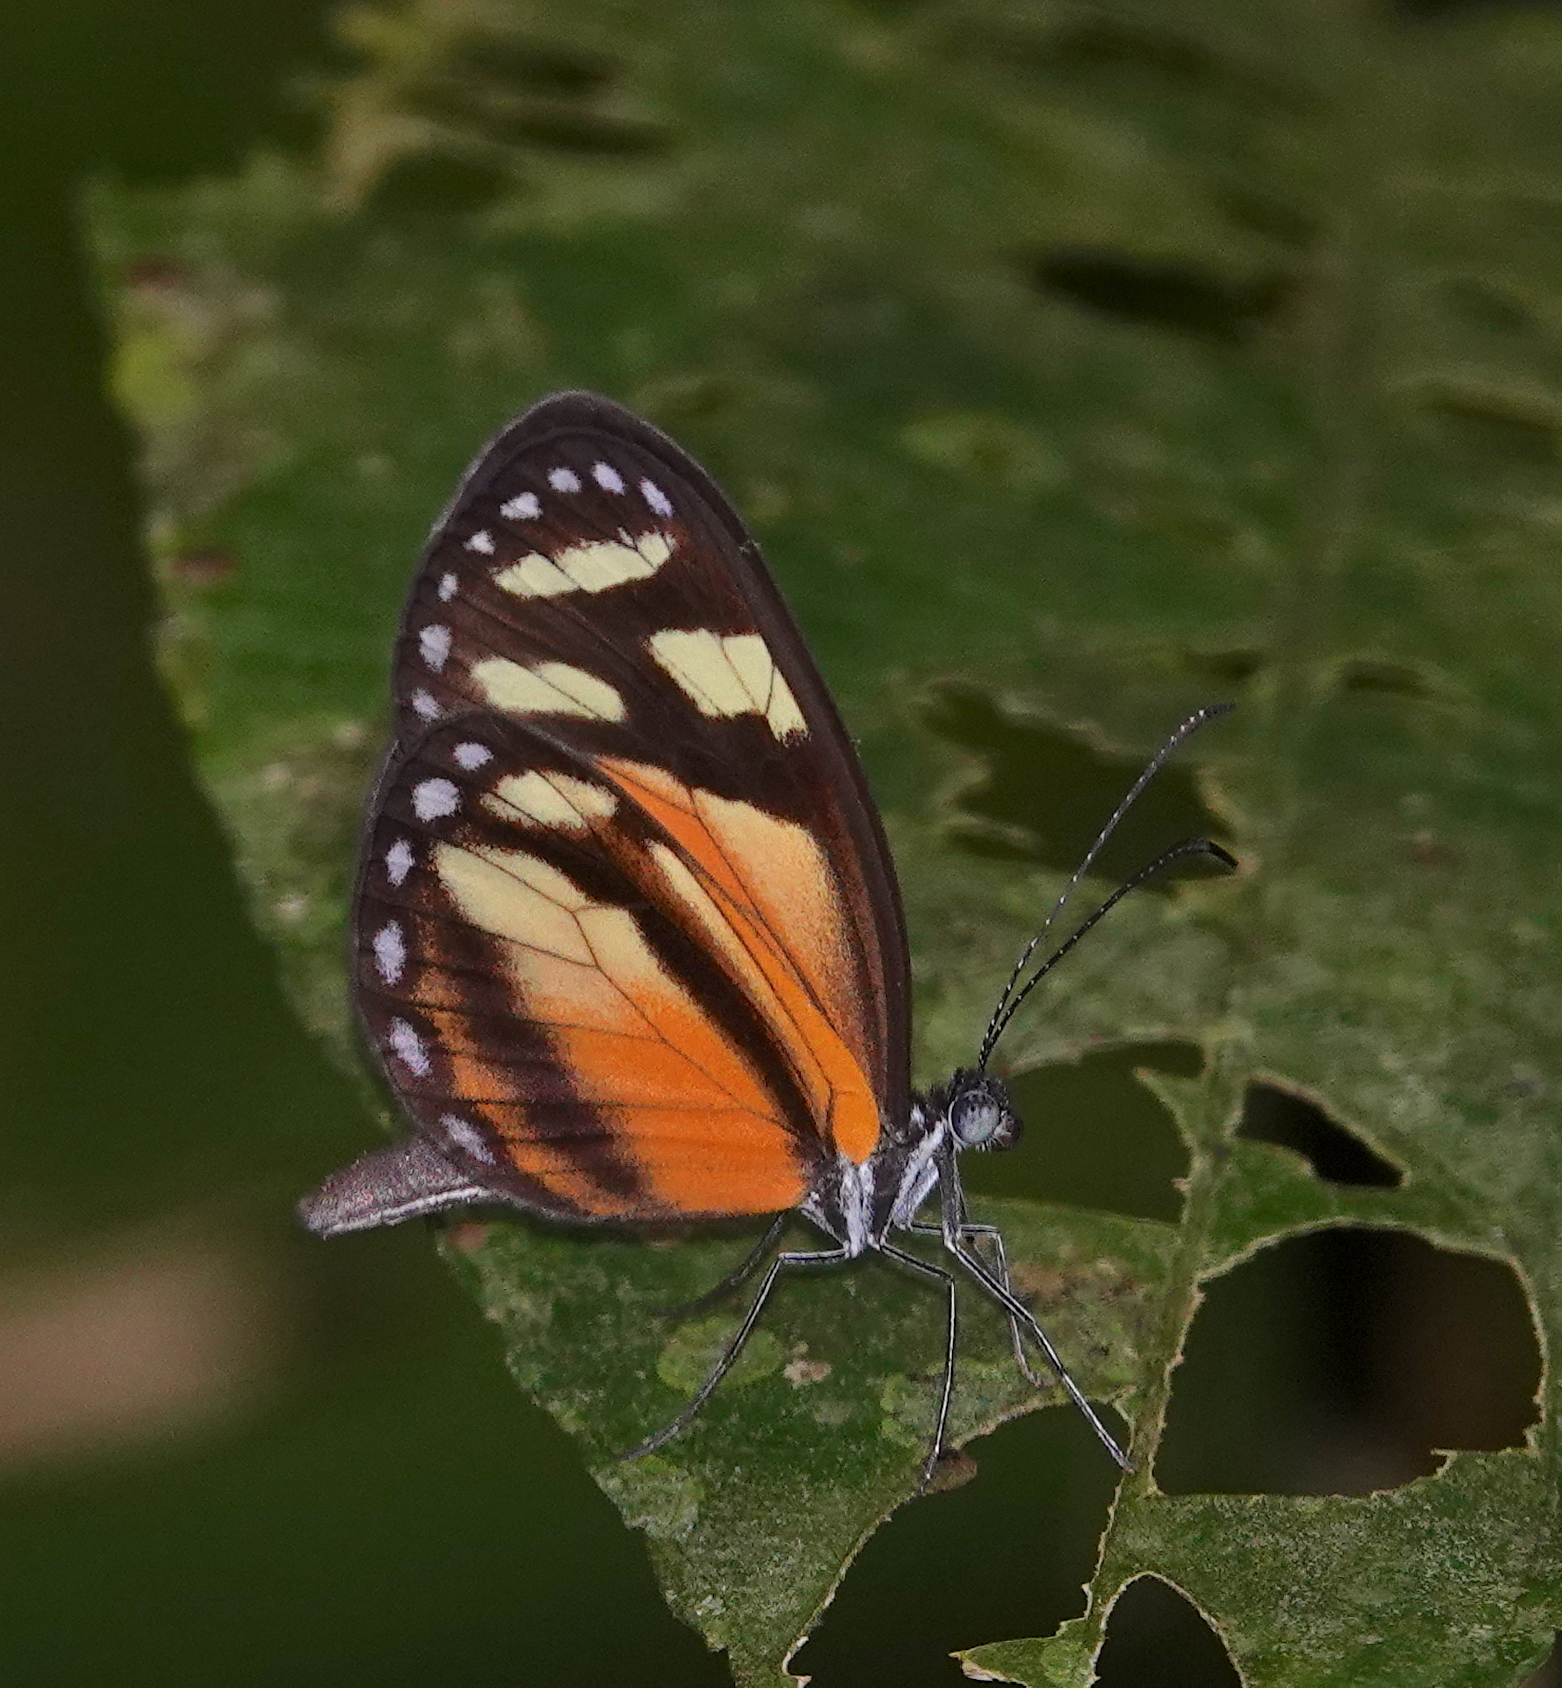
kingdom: Animalia
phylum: Arthropoda
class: Insecta
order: Lepidoptera
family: Pieridae
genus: Dismorphia
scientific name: Dismorphia theucharila
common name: Clearwing mimic-white
